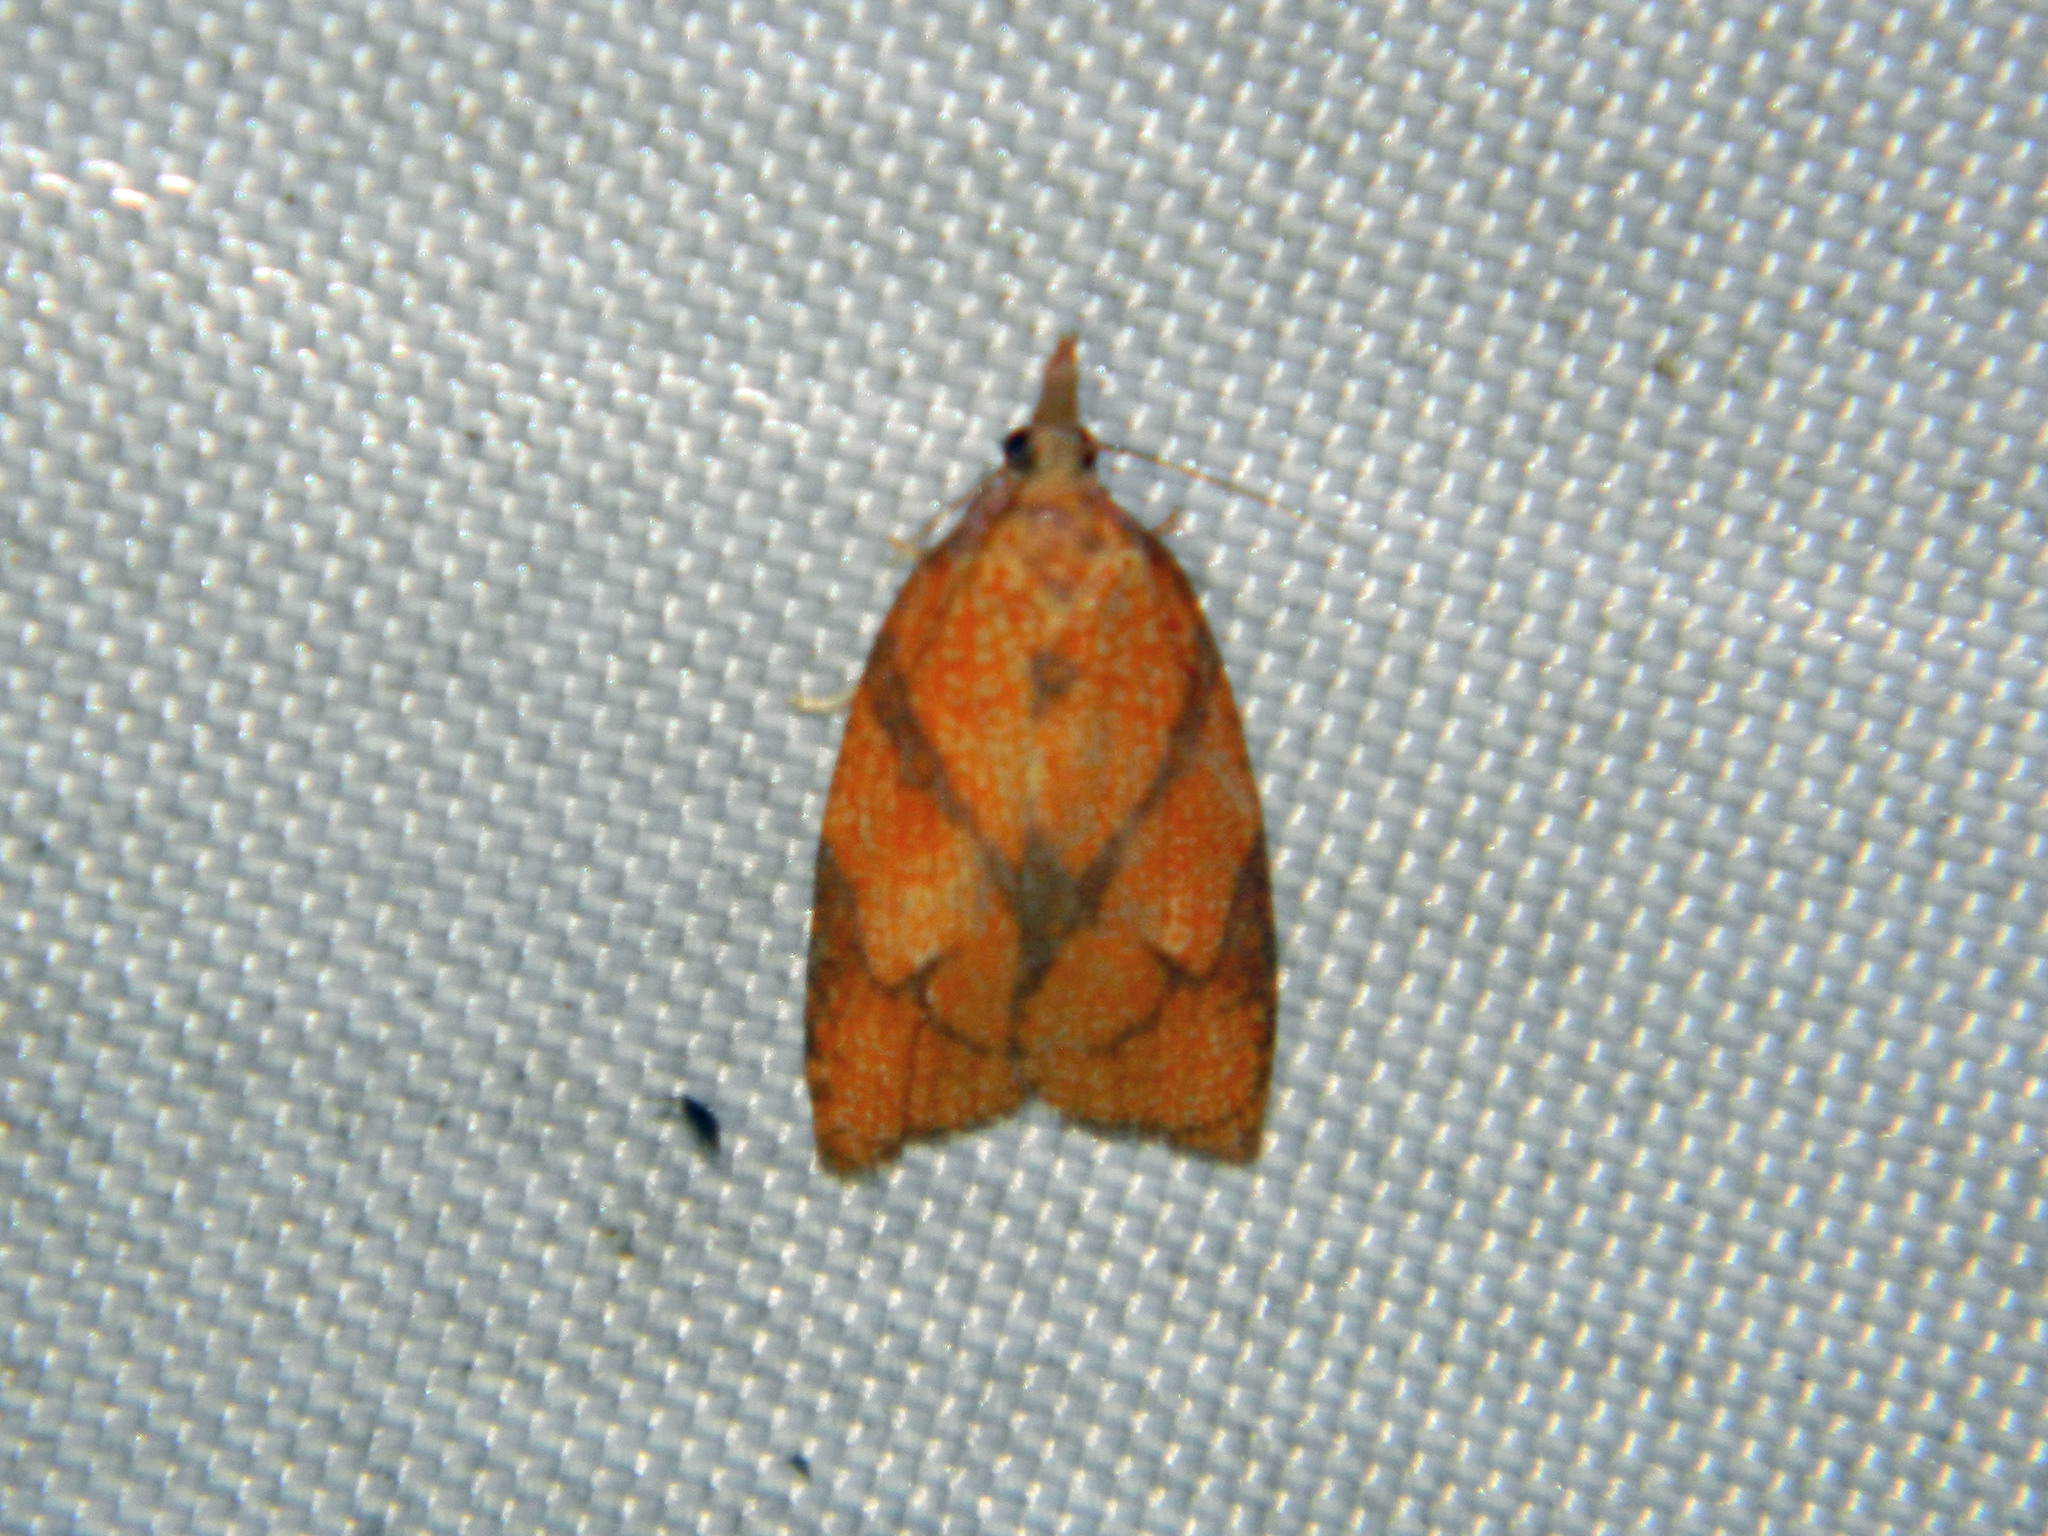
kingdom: Animalia
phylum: Arthropoda
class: Insecta
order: Lepidoptera
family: Tortricidae
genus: Cenopis
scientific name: Cenopis reticulatana
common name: Reticulated fruitworm moth
